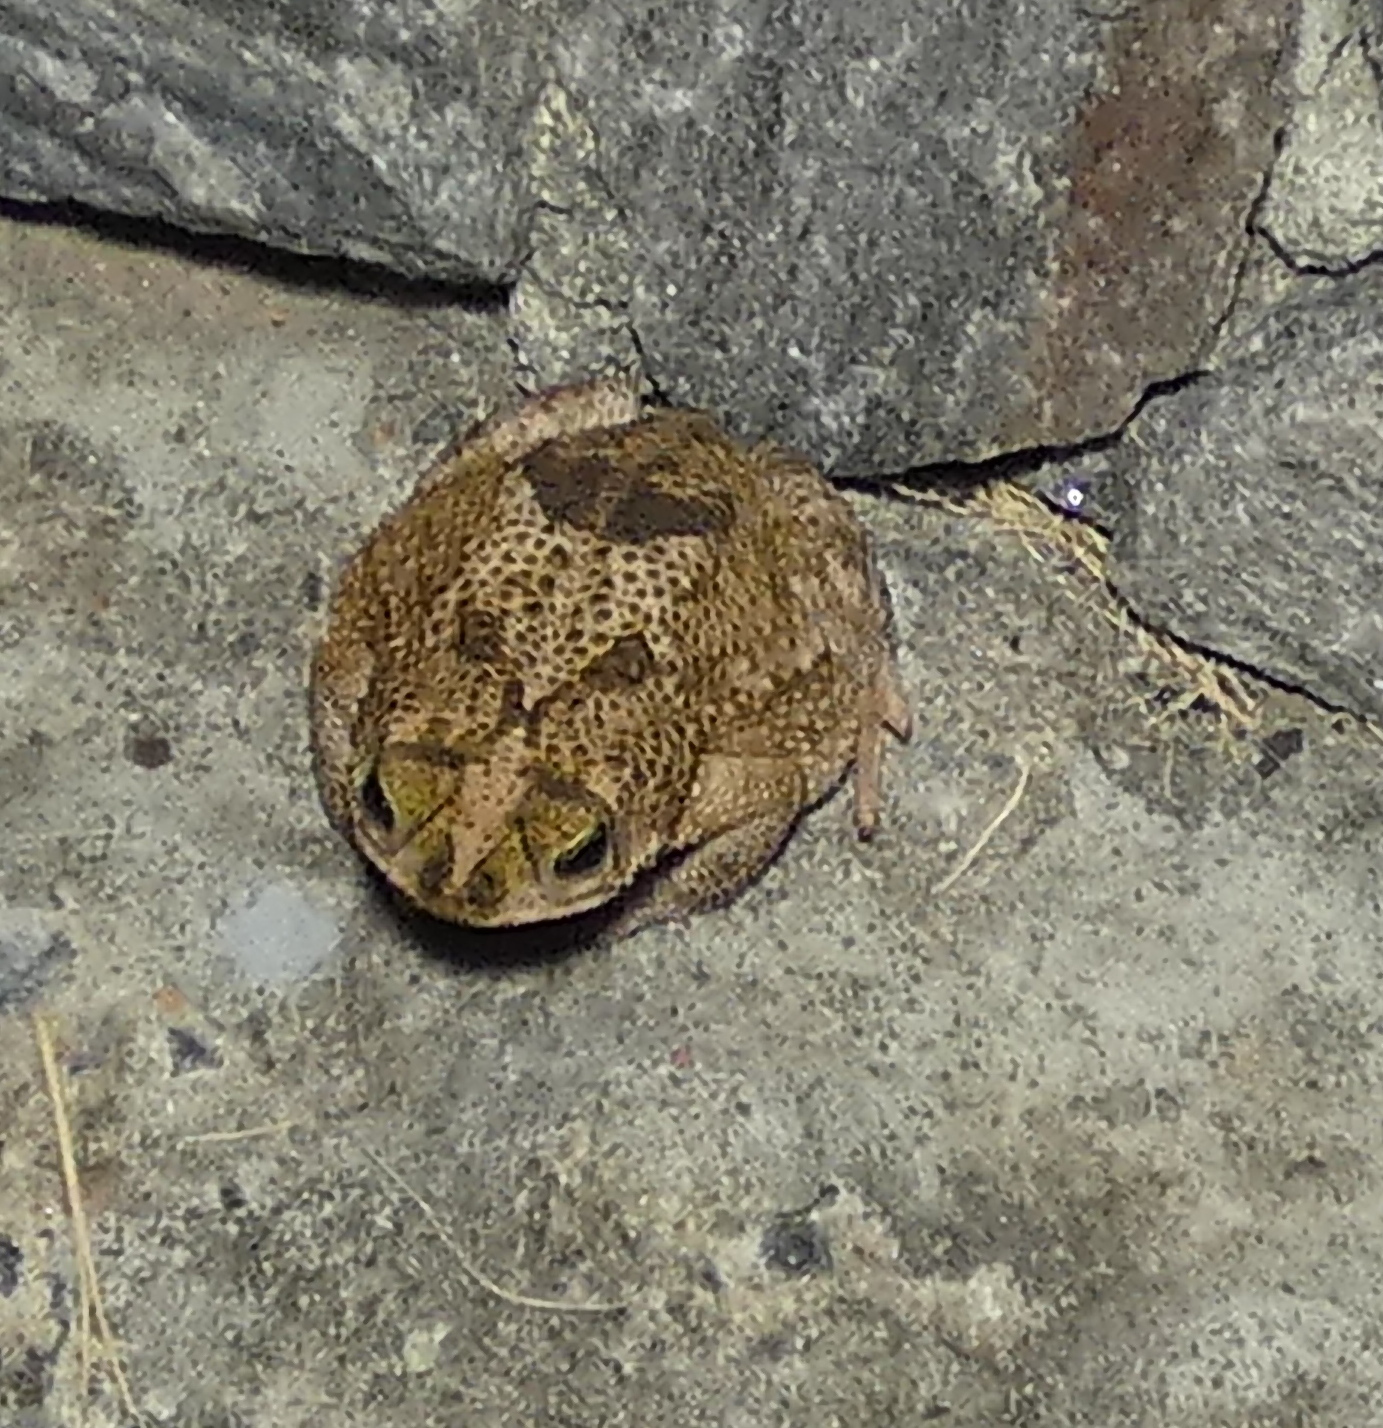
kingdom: Animalia
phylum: Chordata
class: Amphibia
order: Anura
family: Bufonidae
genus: Rhinella
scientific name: Rhinella granulosa
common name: Common lesser toad
